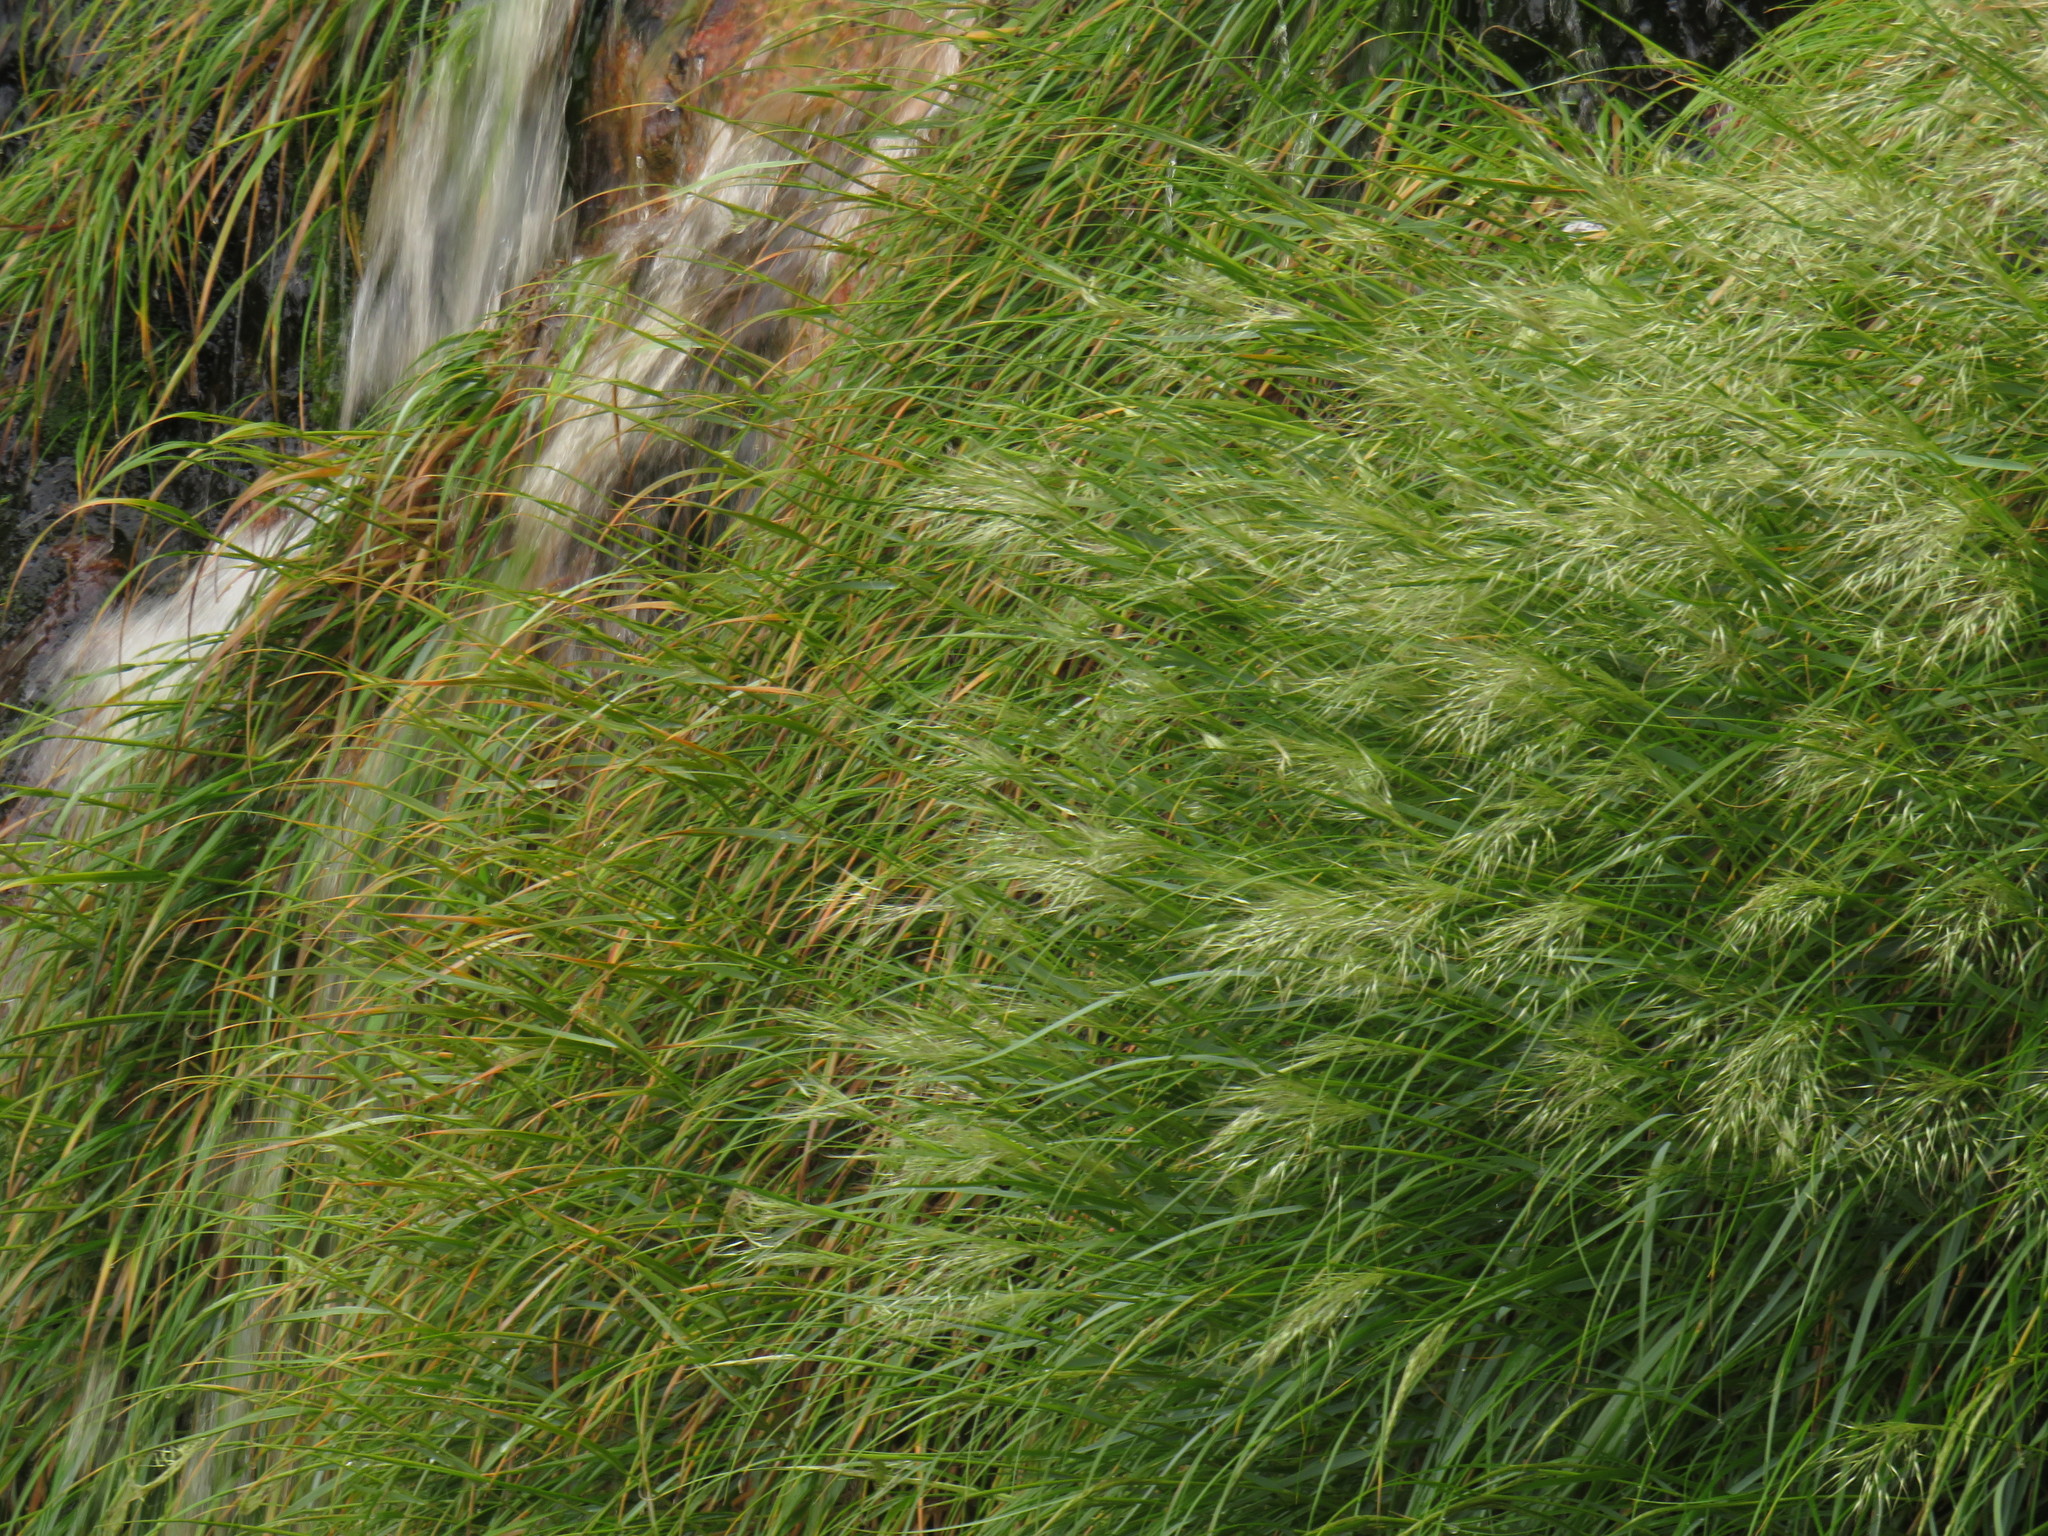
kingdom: Plantae
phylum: Tracheophyta
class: Liliopsida
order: Poales
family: Poaceae
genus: Pentameris
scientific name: Pentameris capensis
